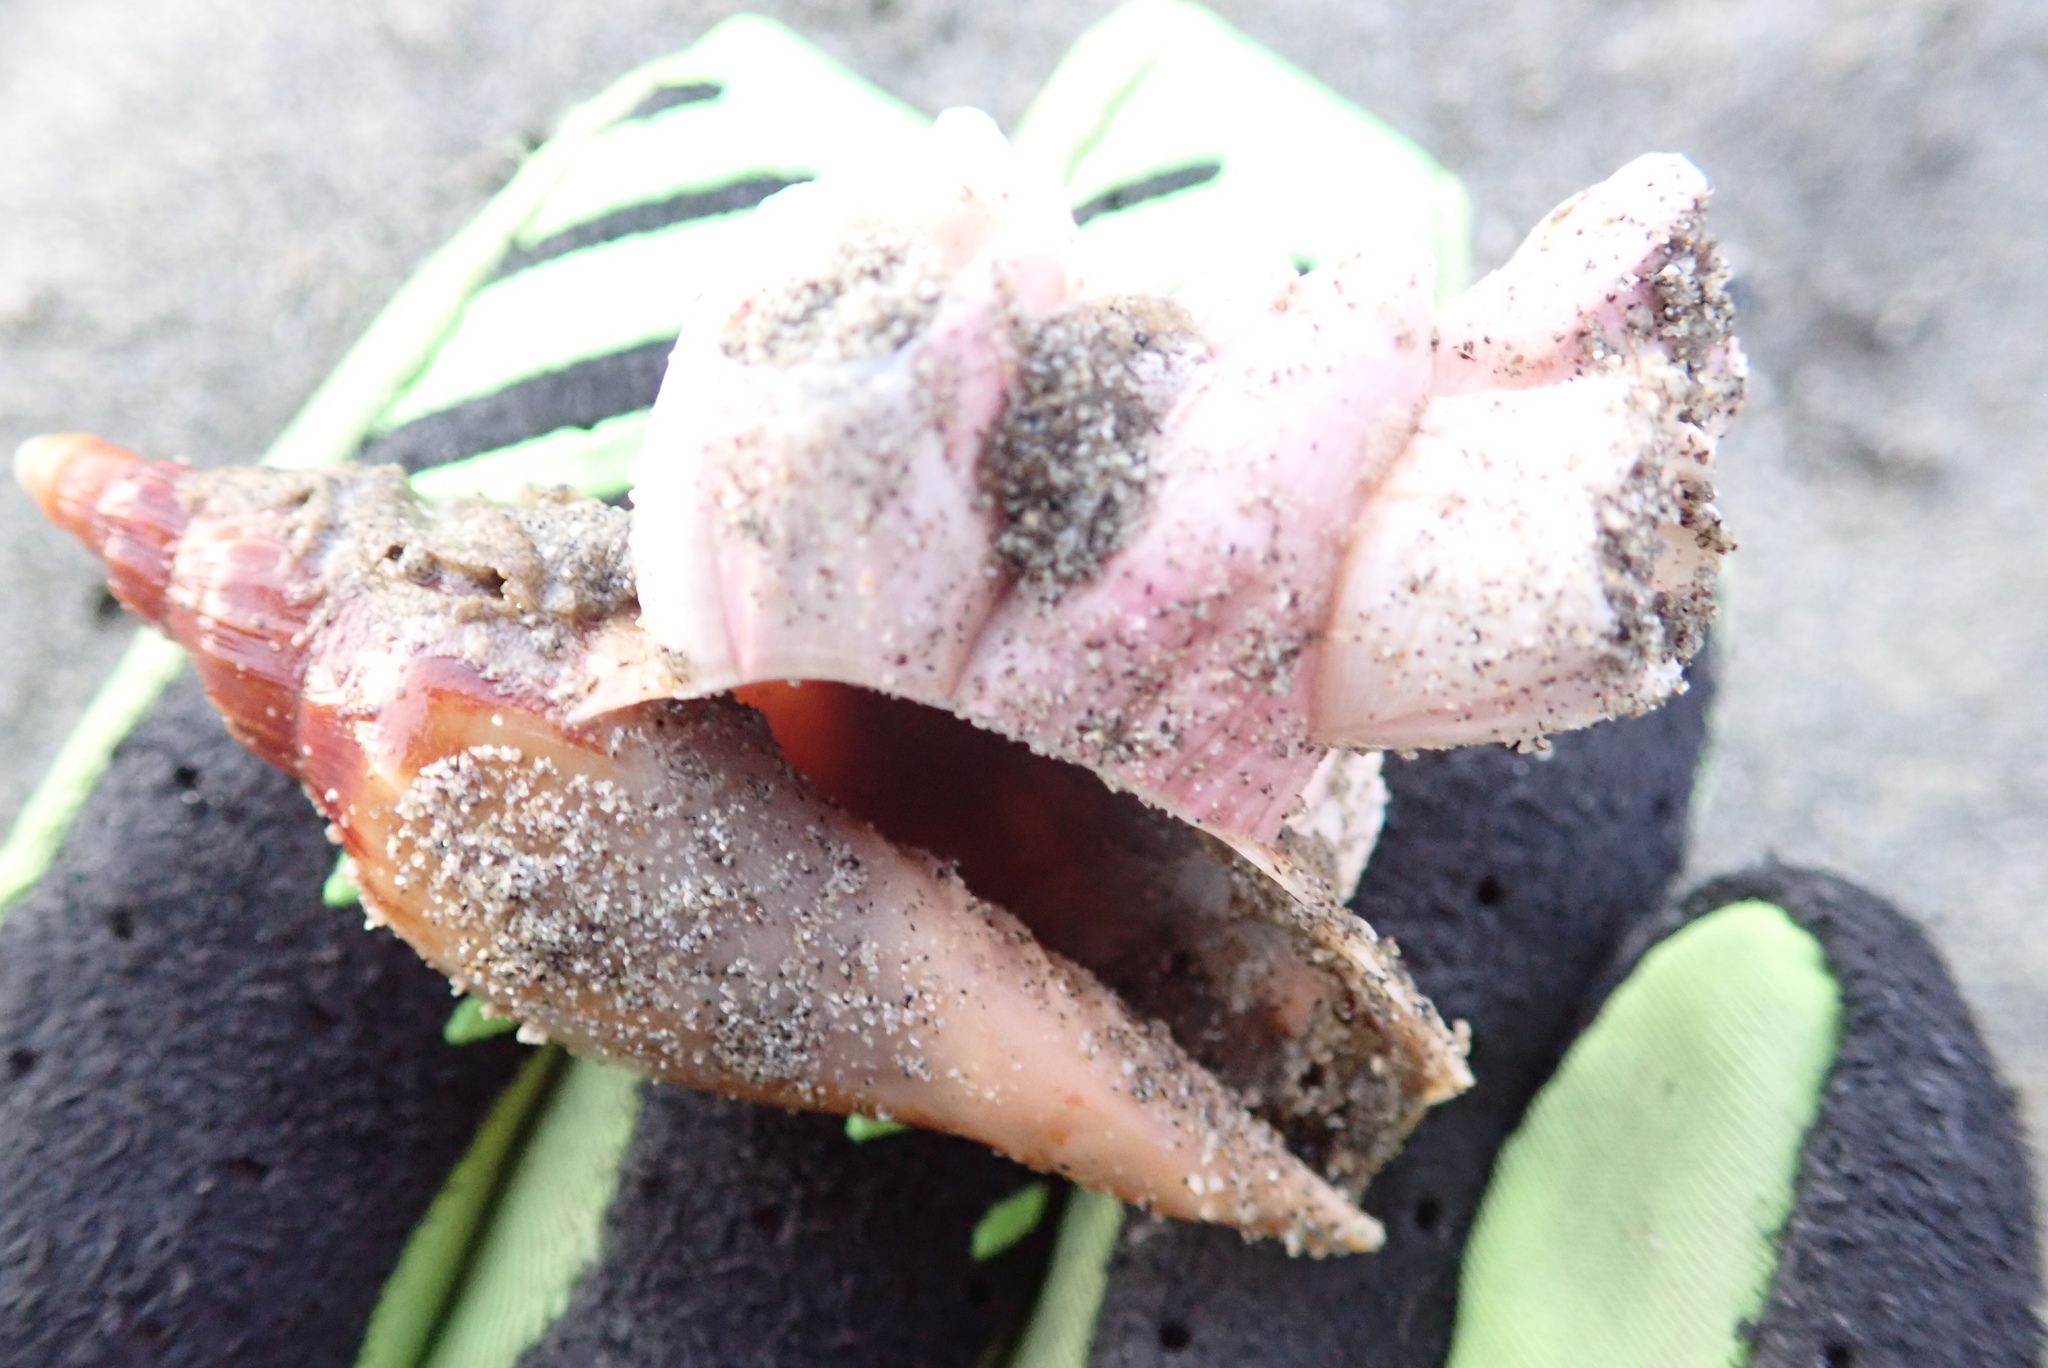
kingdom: Animalia
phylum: Mollusca
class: Gastropoda
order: Neogastropoda
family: Volutidae
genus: Alcithoe
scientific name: Alcithoe fusus
